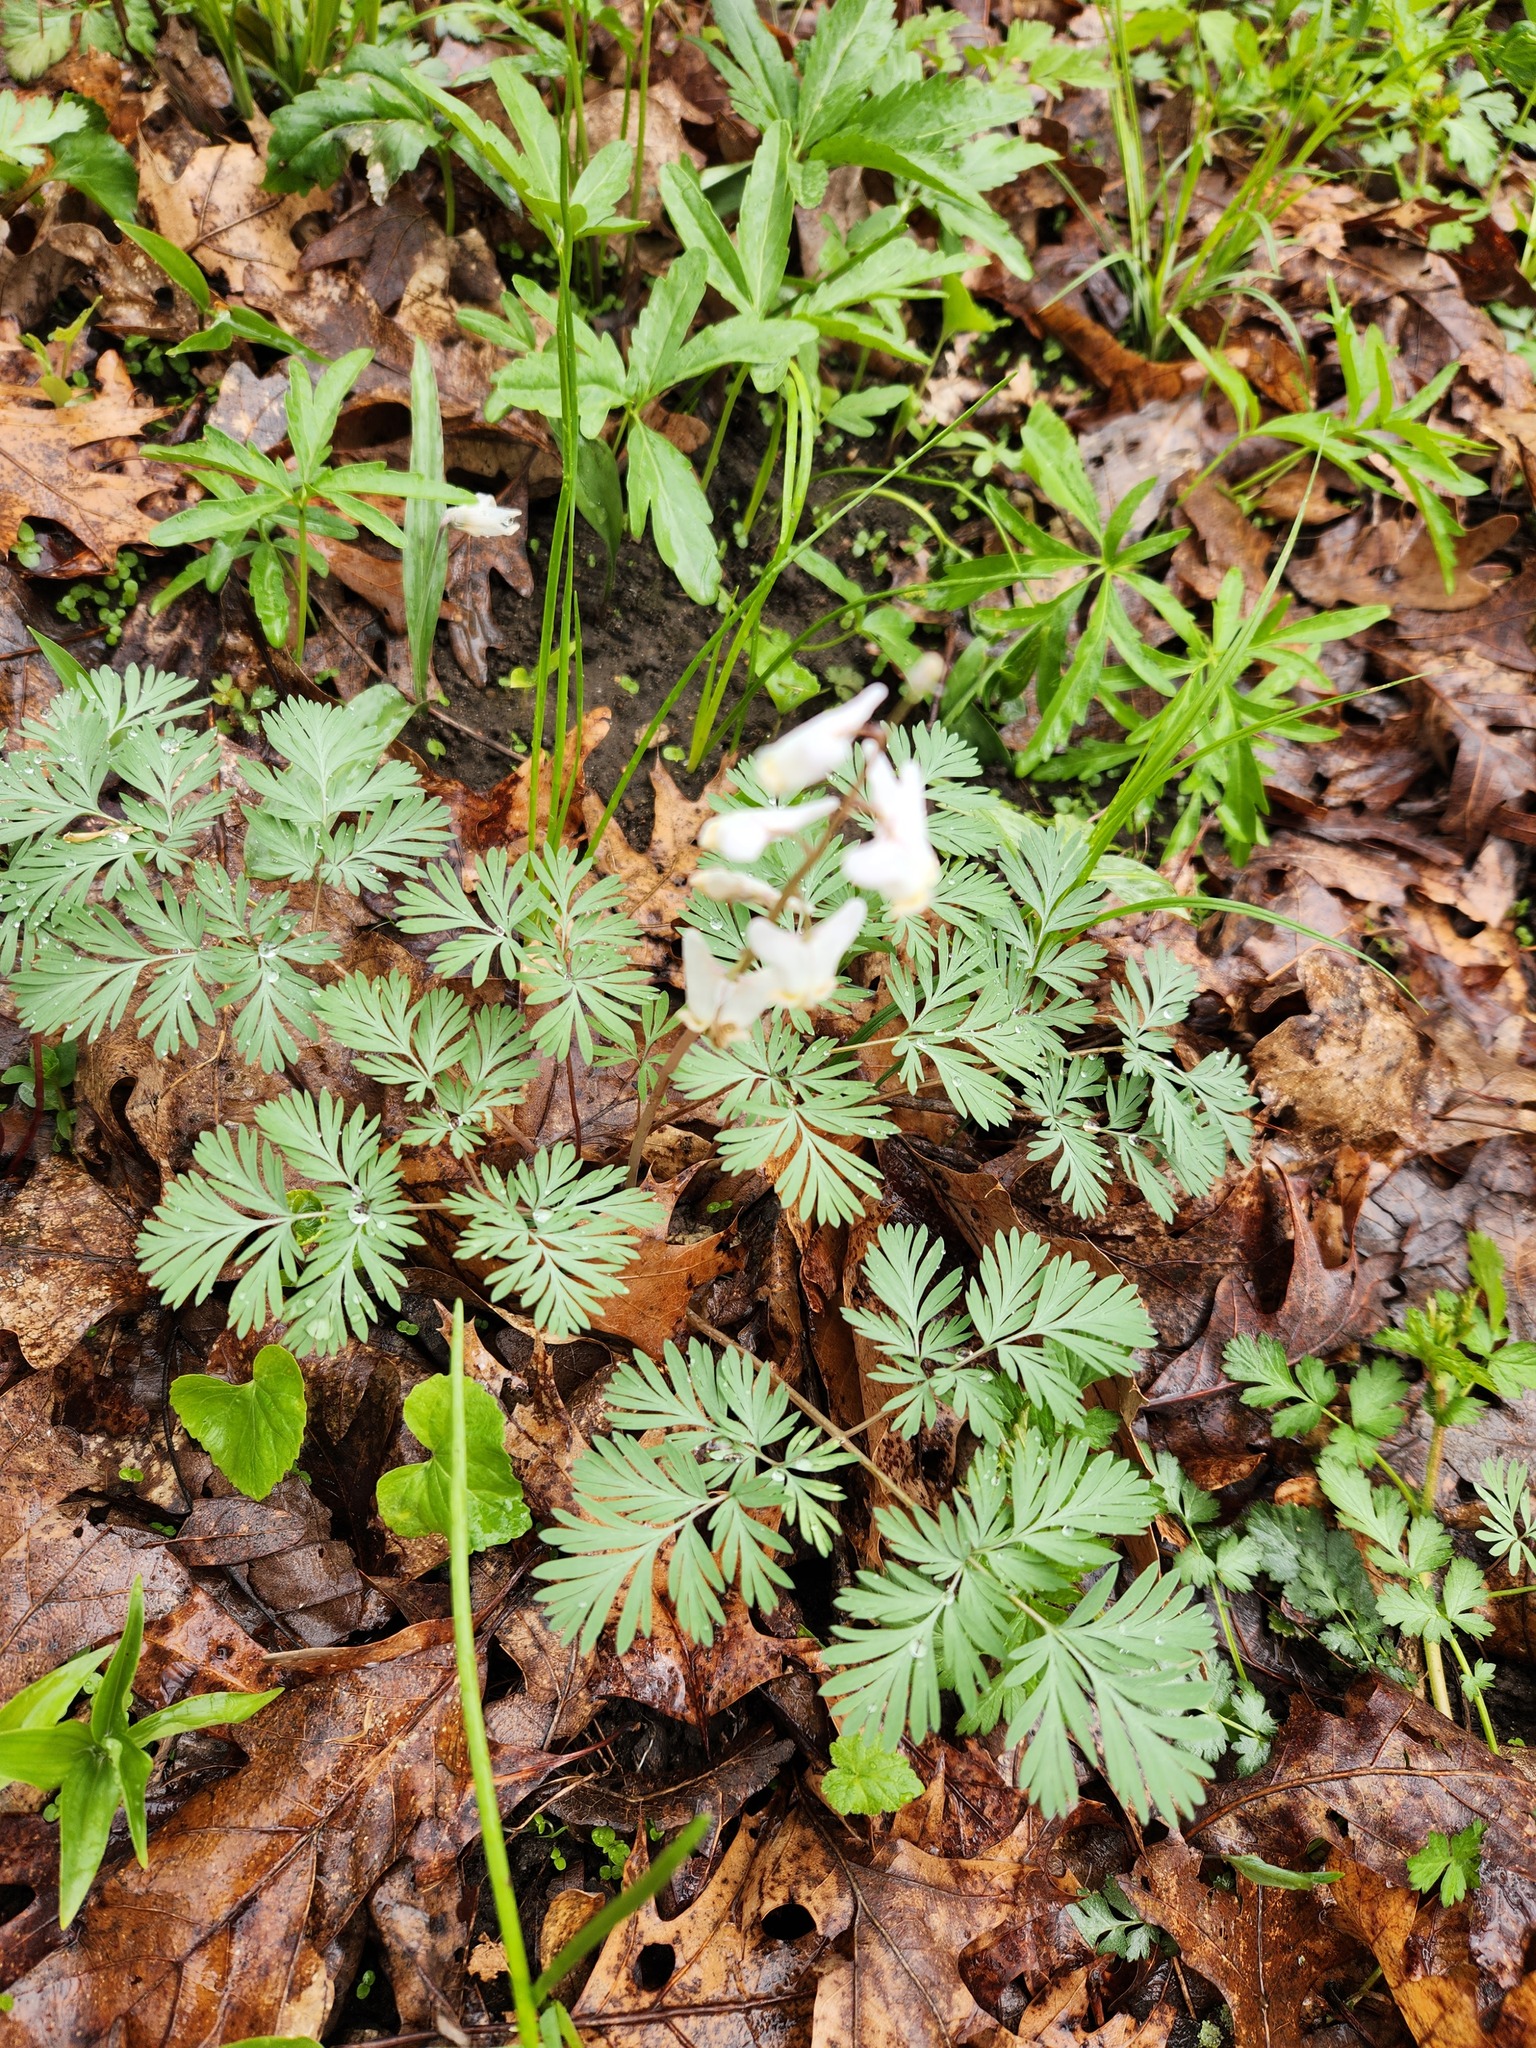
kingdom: Plantae
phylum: Tracheophyta
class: Magnoliopsida
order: Ranunculales
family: Papaveraceae
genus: Dicentra
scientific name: Dicentra cucullaria
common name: Dutchman's breeches
